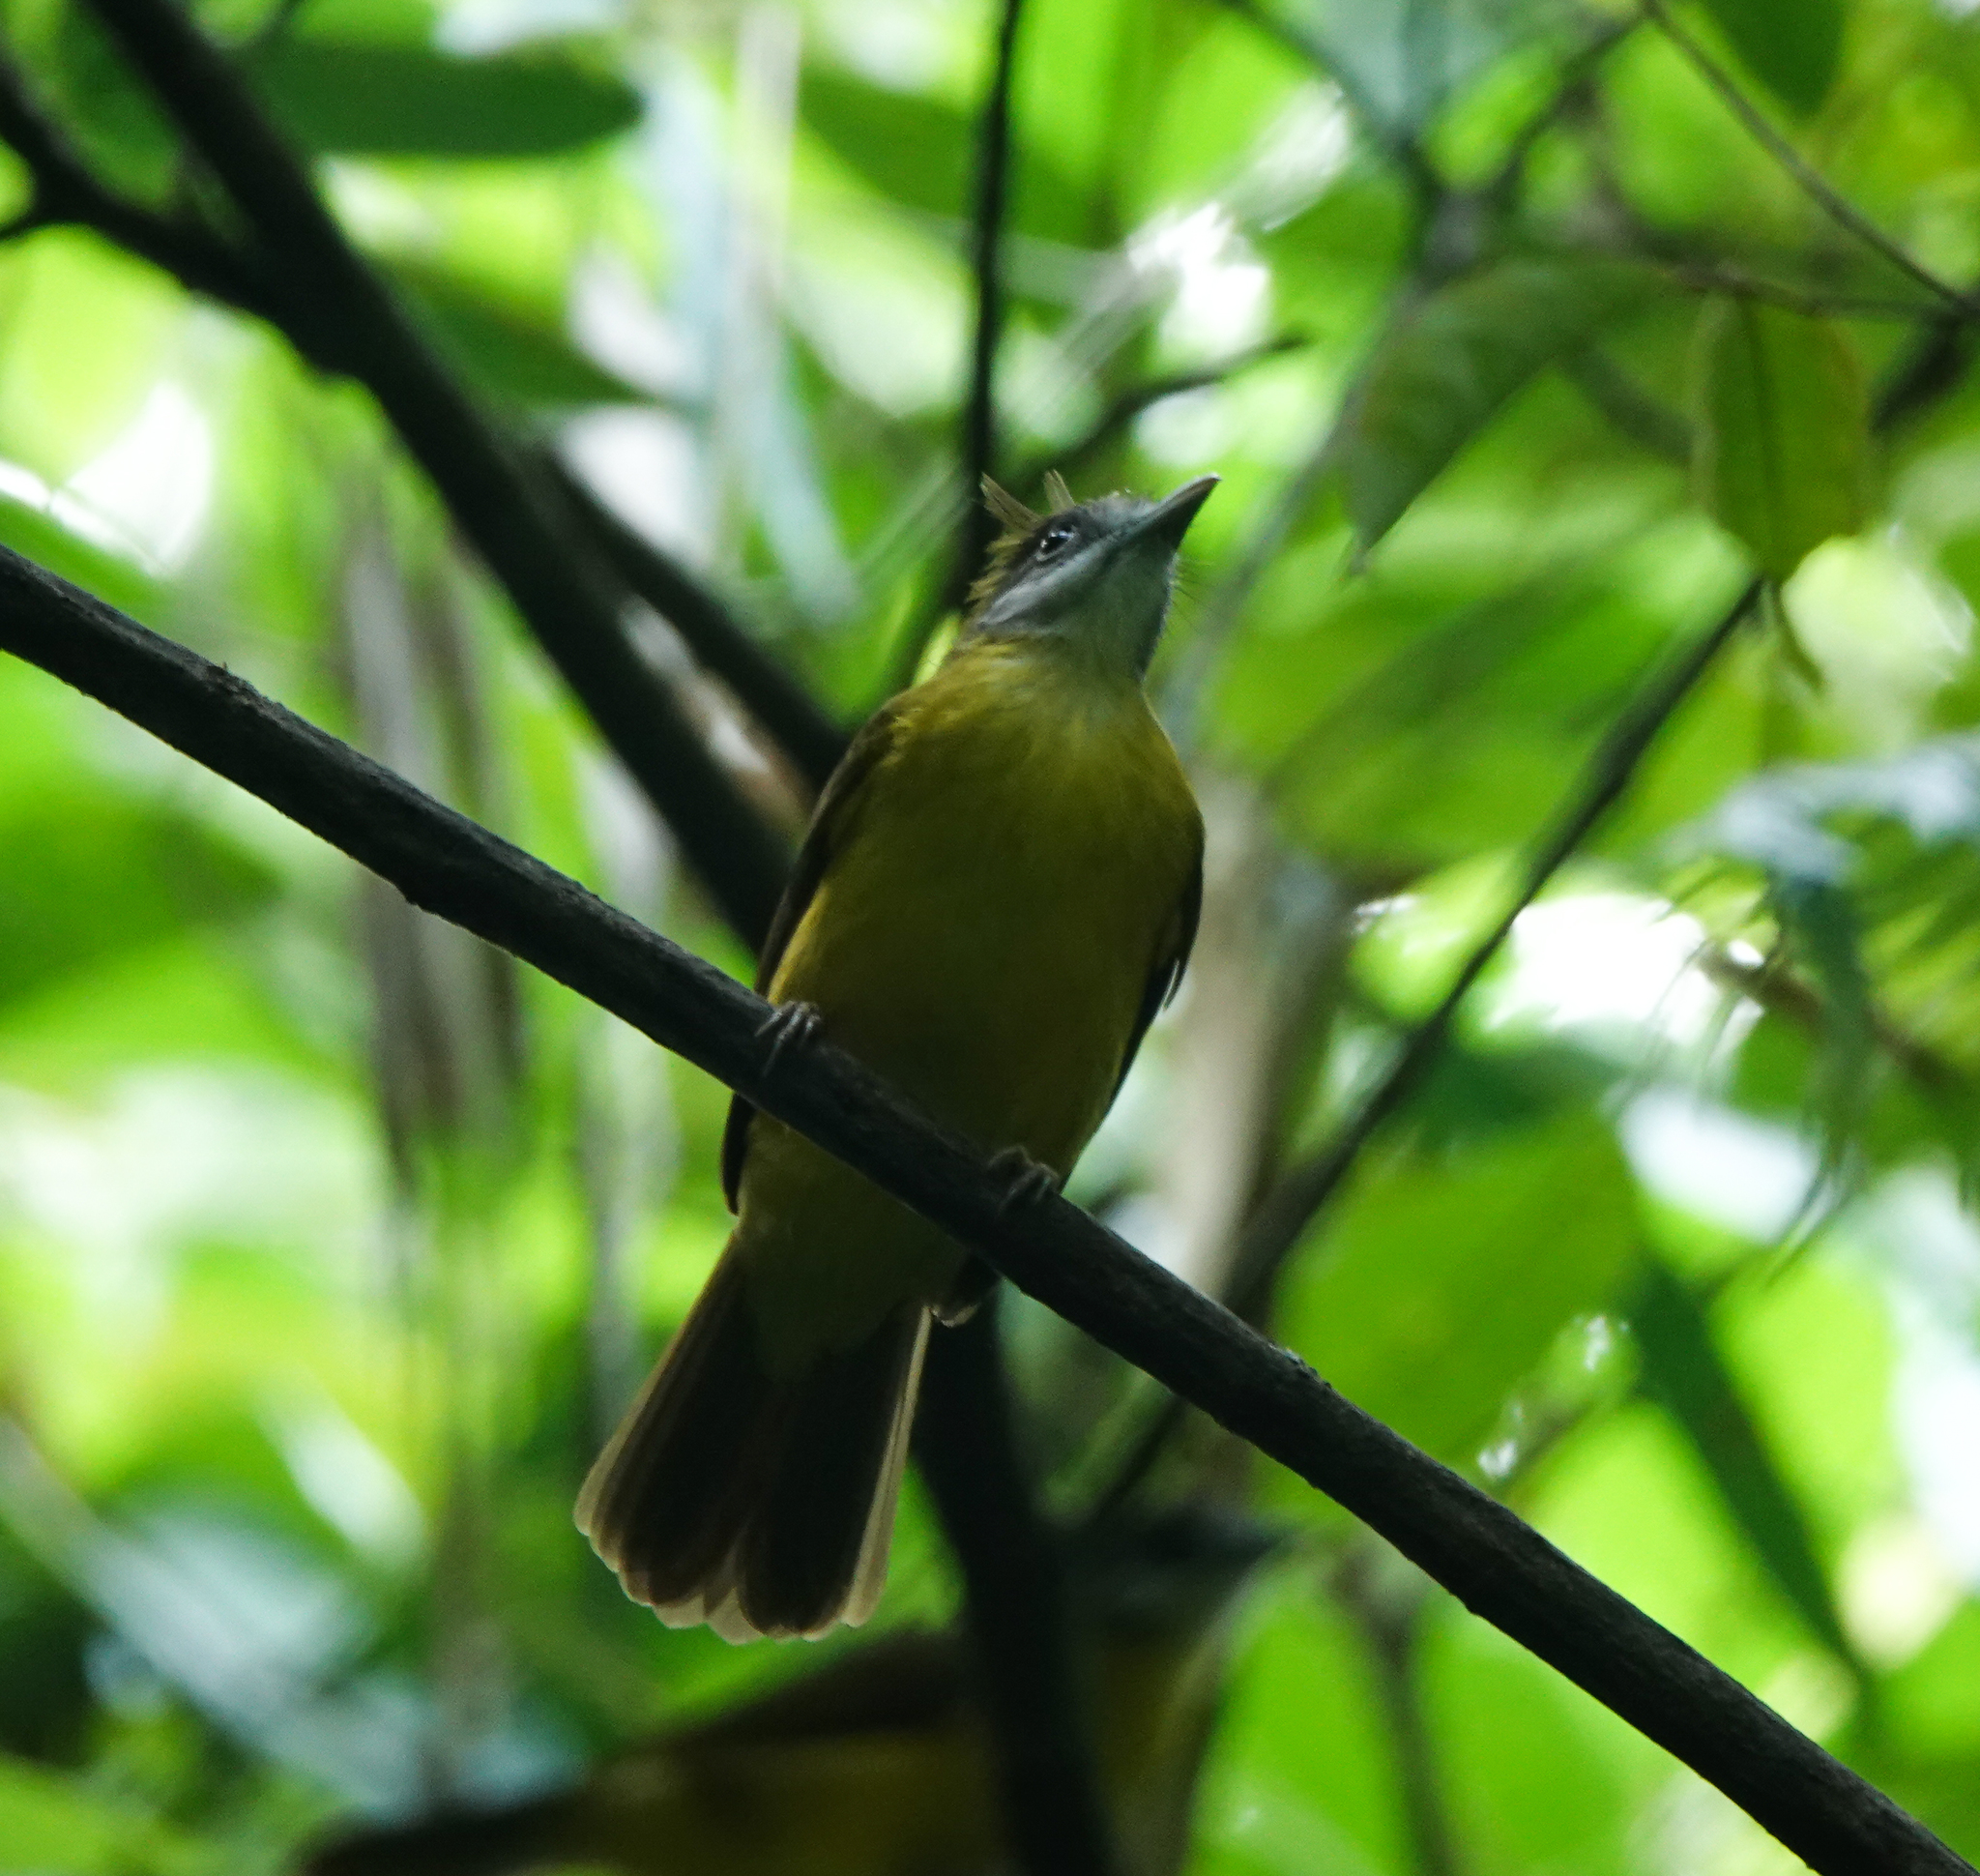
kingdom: Animalia
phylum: Chordata
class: Aves
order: Passeriformes
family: Pycnonotidae
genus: Alophoixus
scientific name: Alophoixus flaveolus
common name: White-throated bulbul
